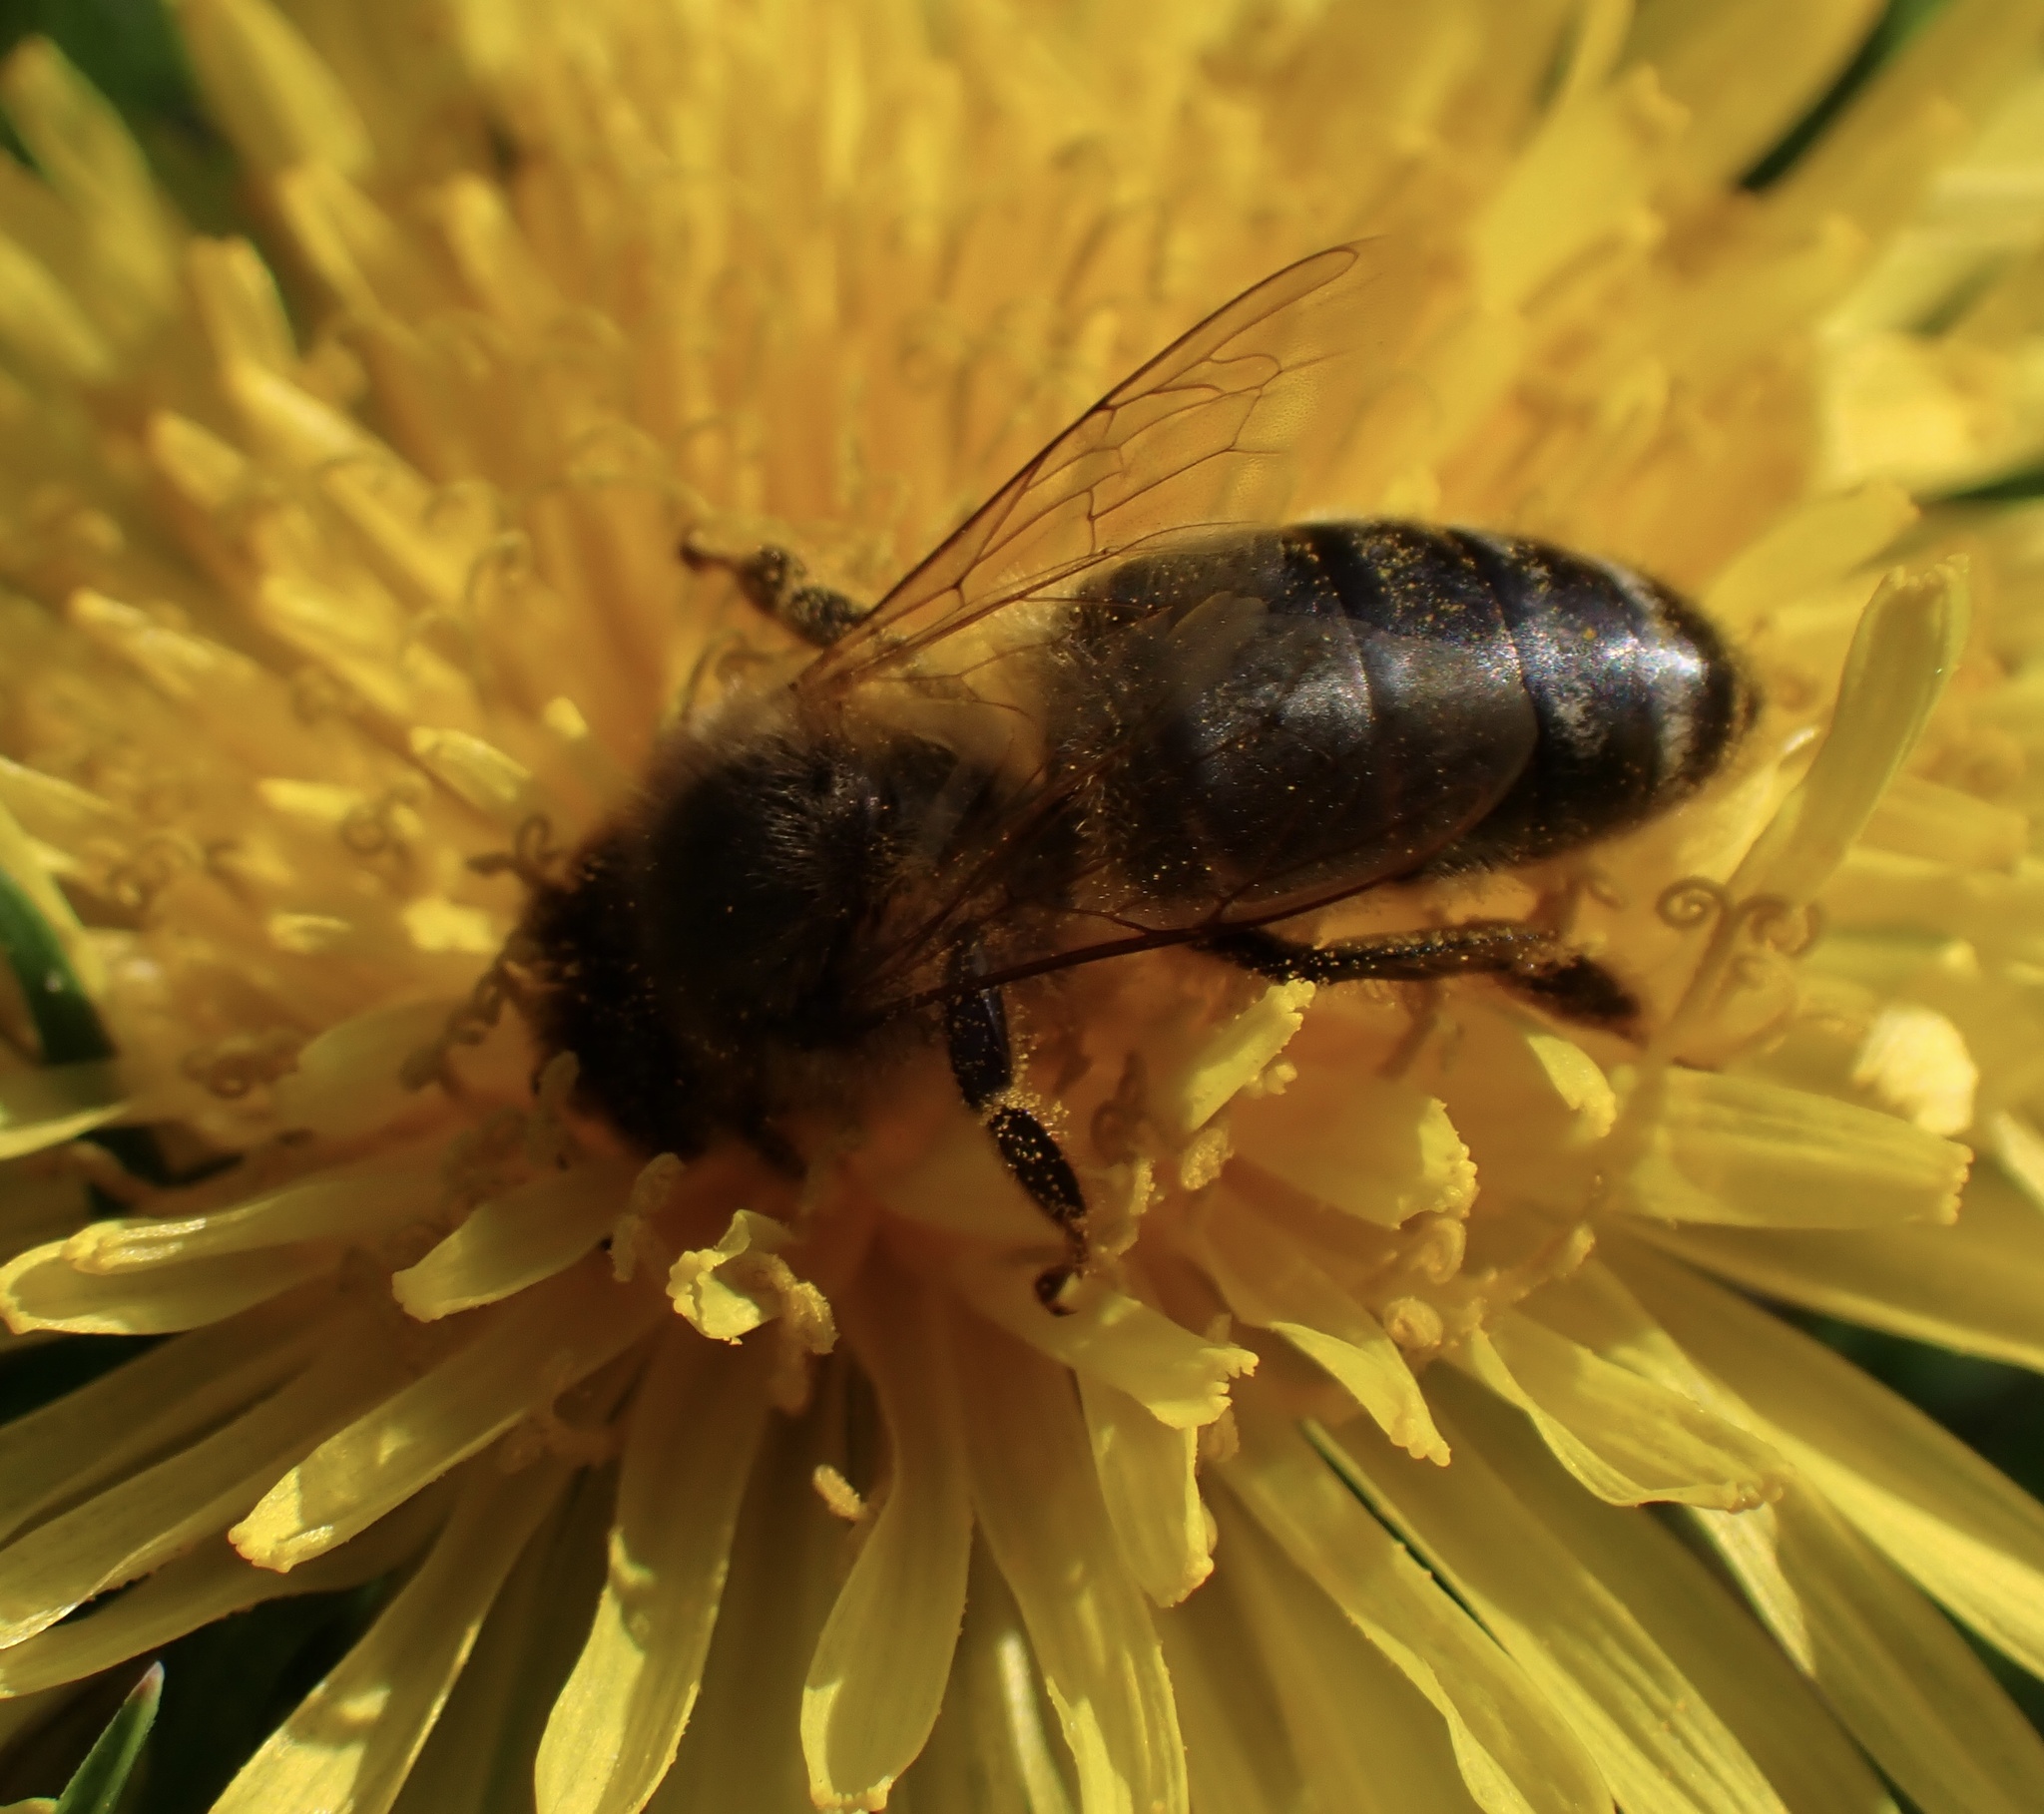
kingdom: Animalia
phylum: Arthropoda
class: Insecta
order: Hymenoptera
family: Apidae
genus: Apis
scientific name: Apis mellifera
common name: Honey bee
